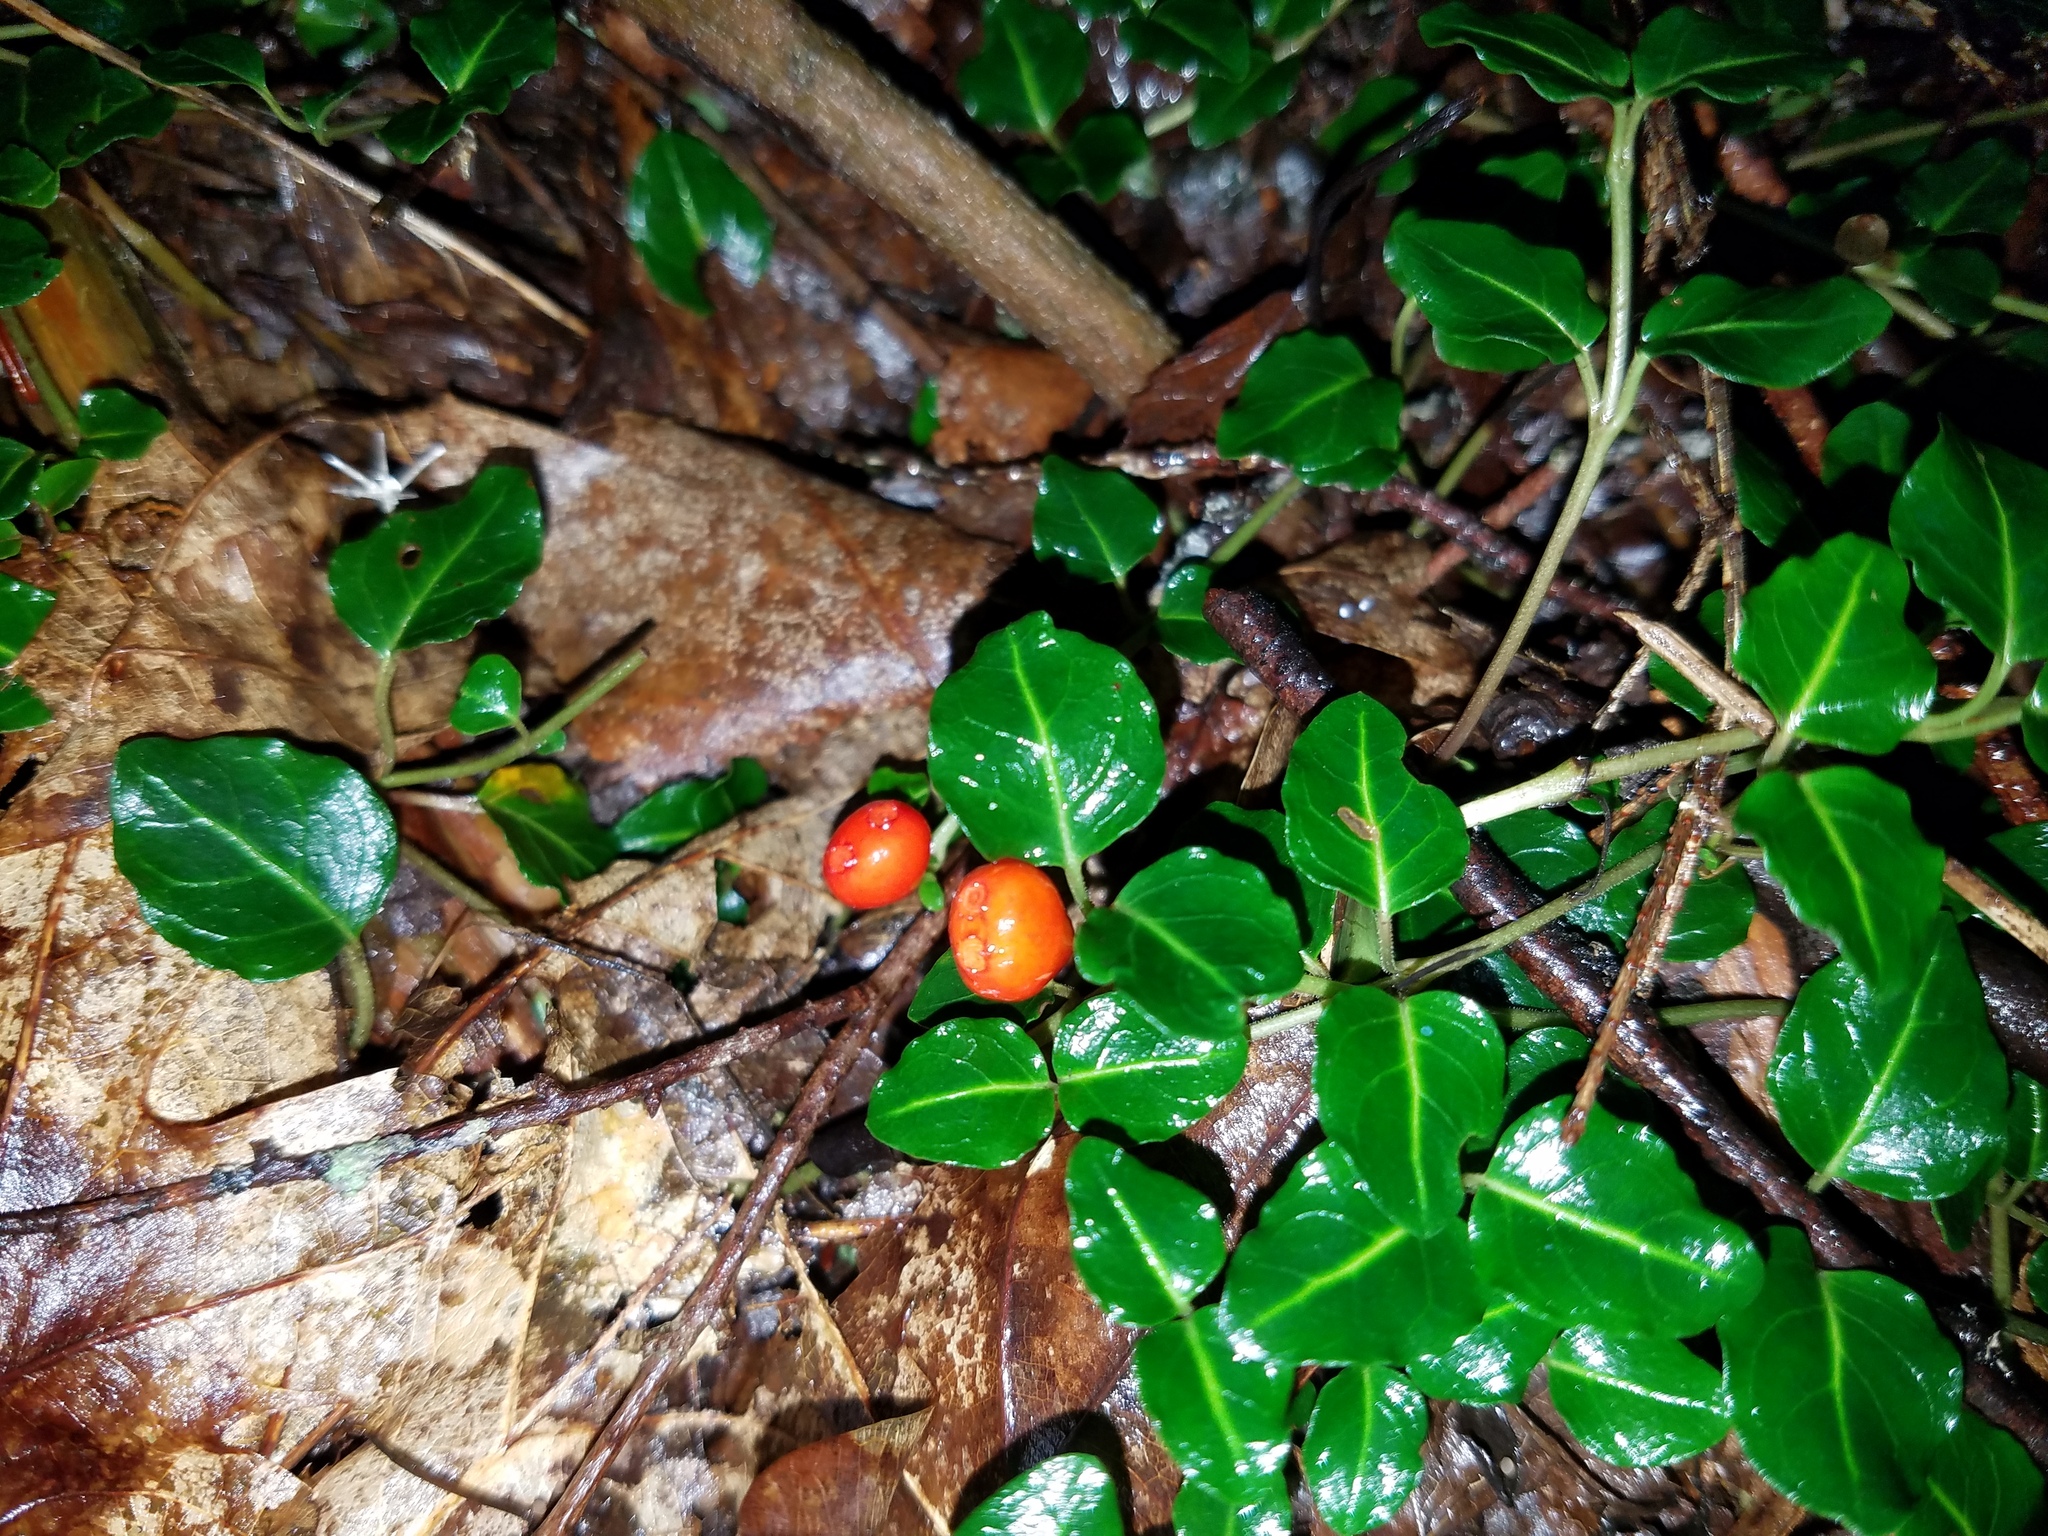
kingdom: Plantae
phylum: Tracheophyta
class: Magnoliopsida
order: Gentianales
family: Rubiaceae
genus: Mitchella
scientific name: Mitchella repens
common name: Partridge-berry
